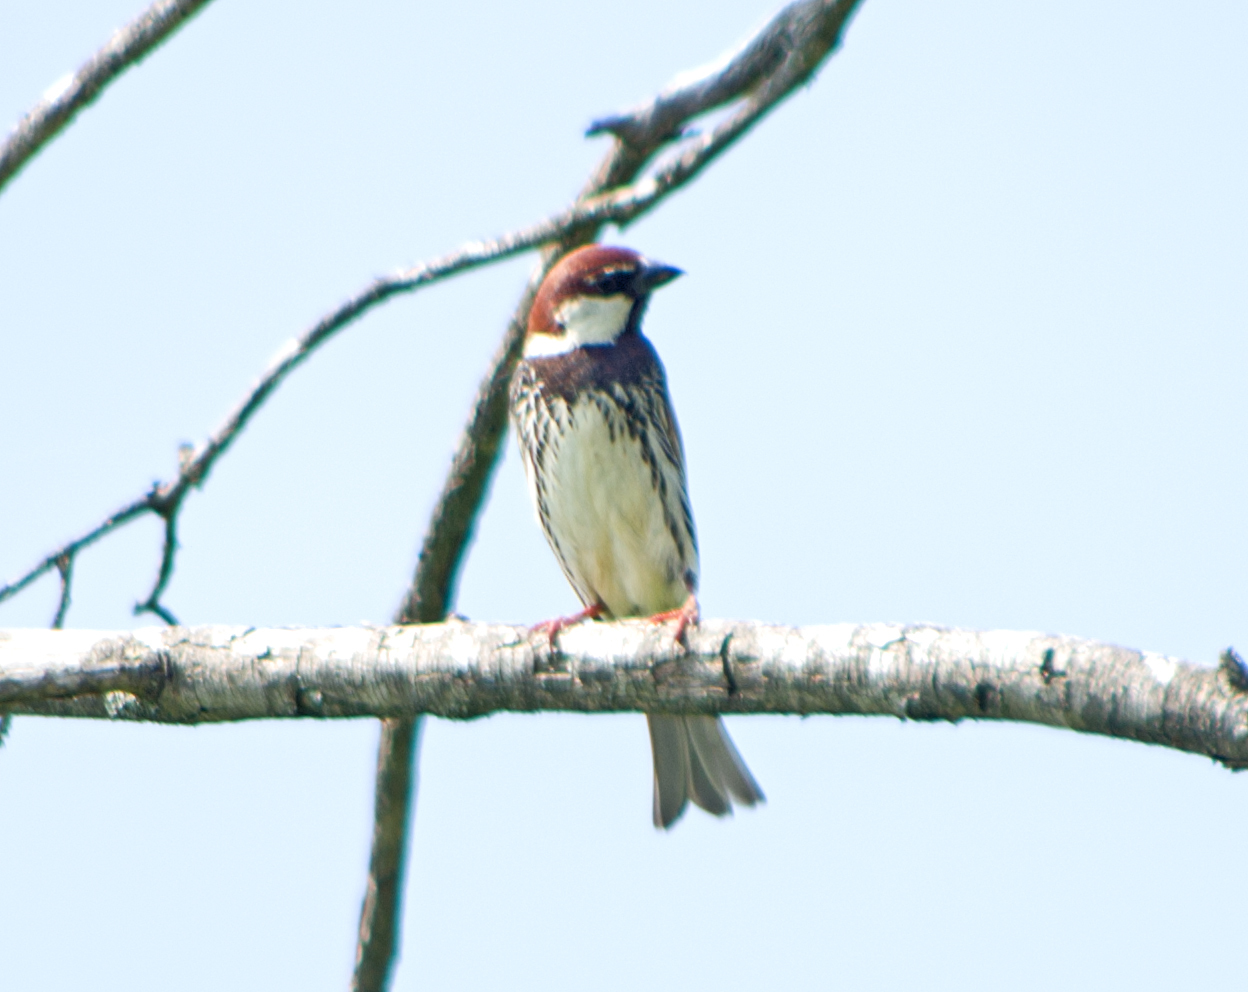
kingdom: Animalia
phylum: Chordata
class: Aves
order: Passeriformes
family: Passeridae
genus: Passer
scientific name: Passer hispaniolensis
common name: Spanish sparrow
